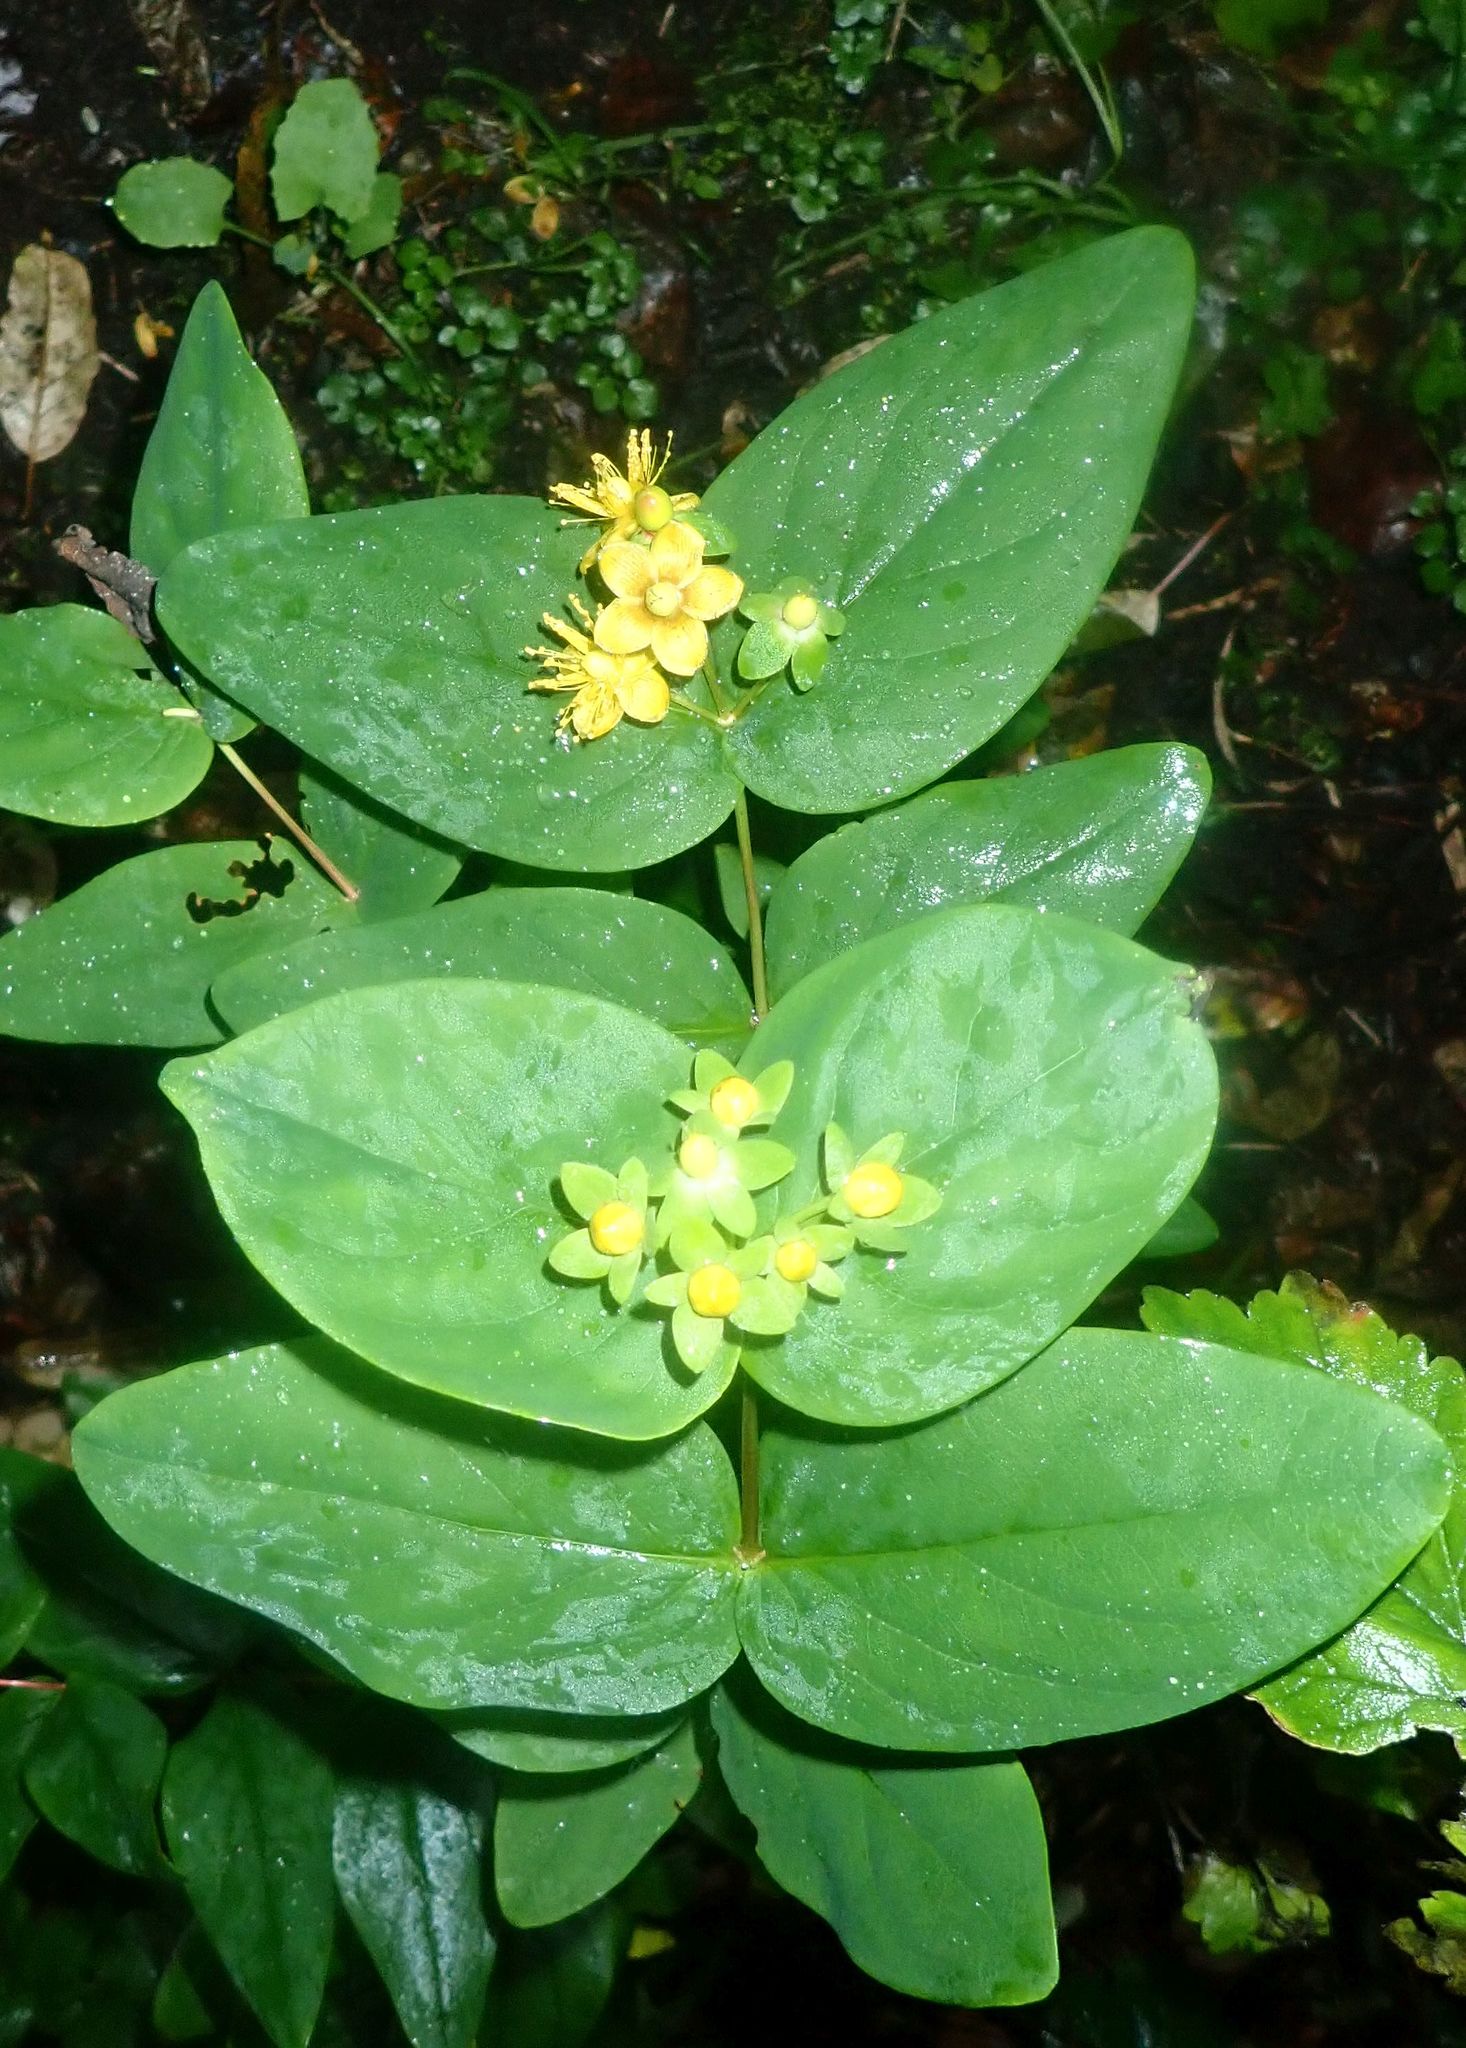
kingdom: Plantae
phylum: Tracheophyta
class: Magnoliopsida
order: Malpighiales
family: Hypericaceae
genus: Hypericum
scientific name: Hypericum androsaemum
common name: Sweet-amber
